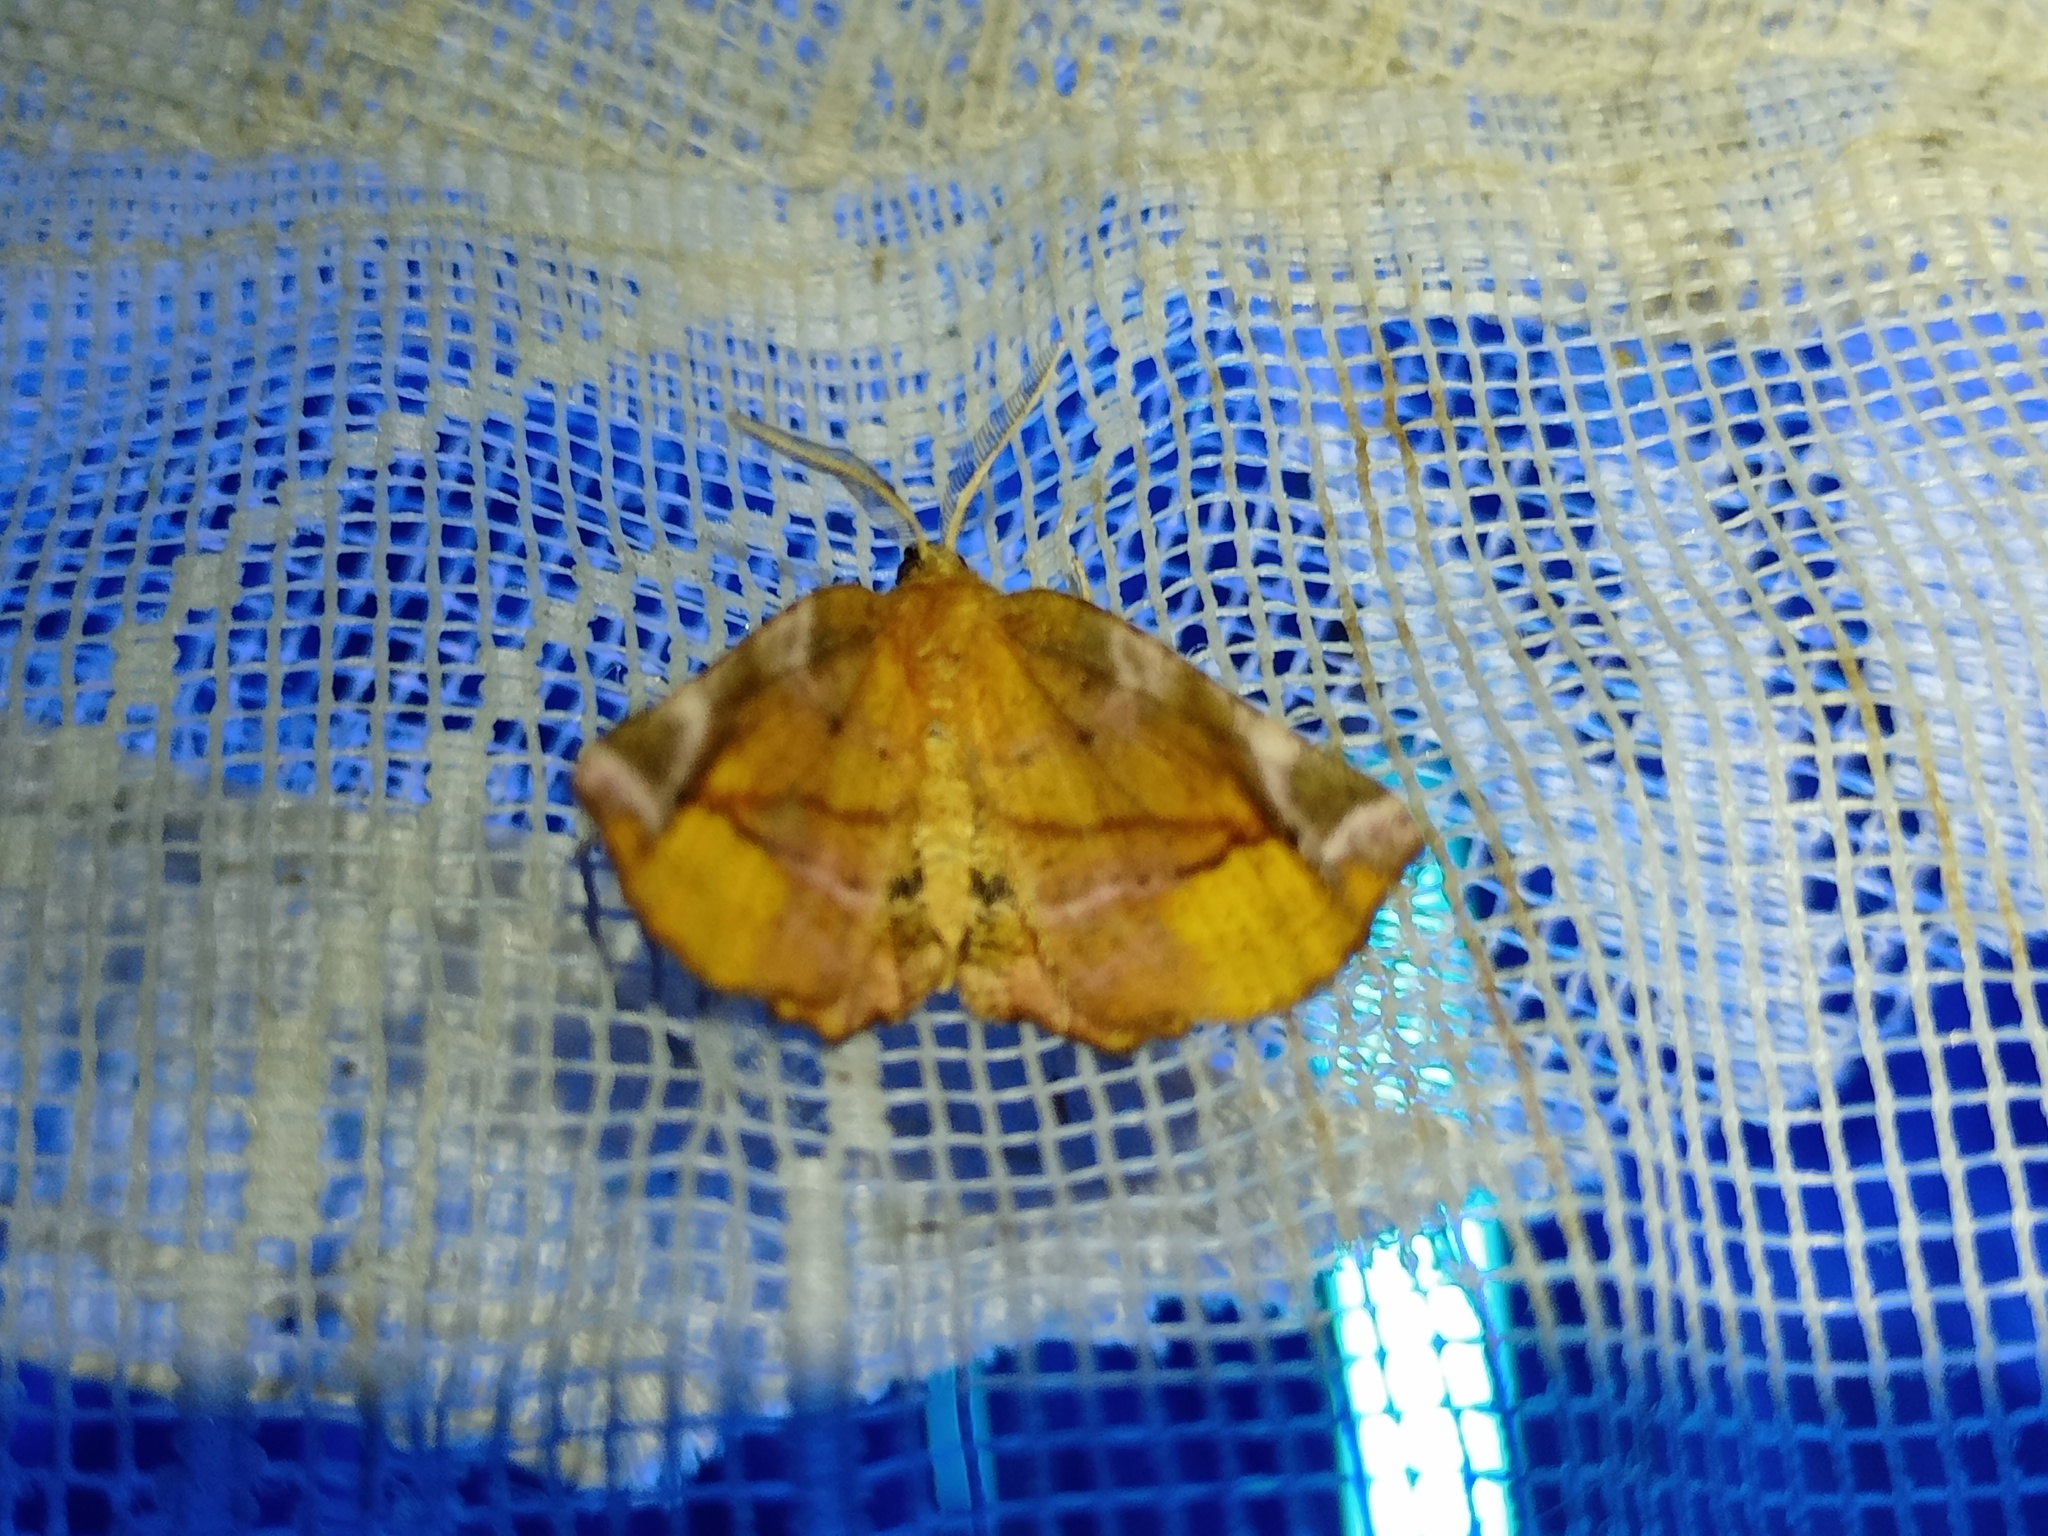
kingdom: Animalia
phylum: Arthropoda
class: Insecta
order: Lepidoptera
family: Geometridae
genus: Apeira
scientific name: Apeira syringaria
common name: Lilac beauty
